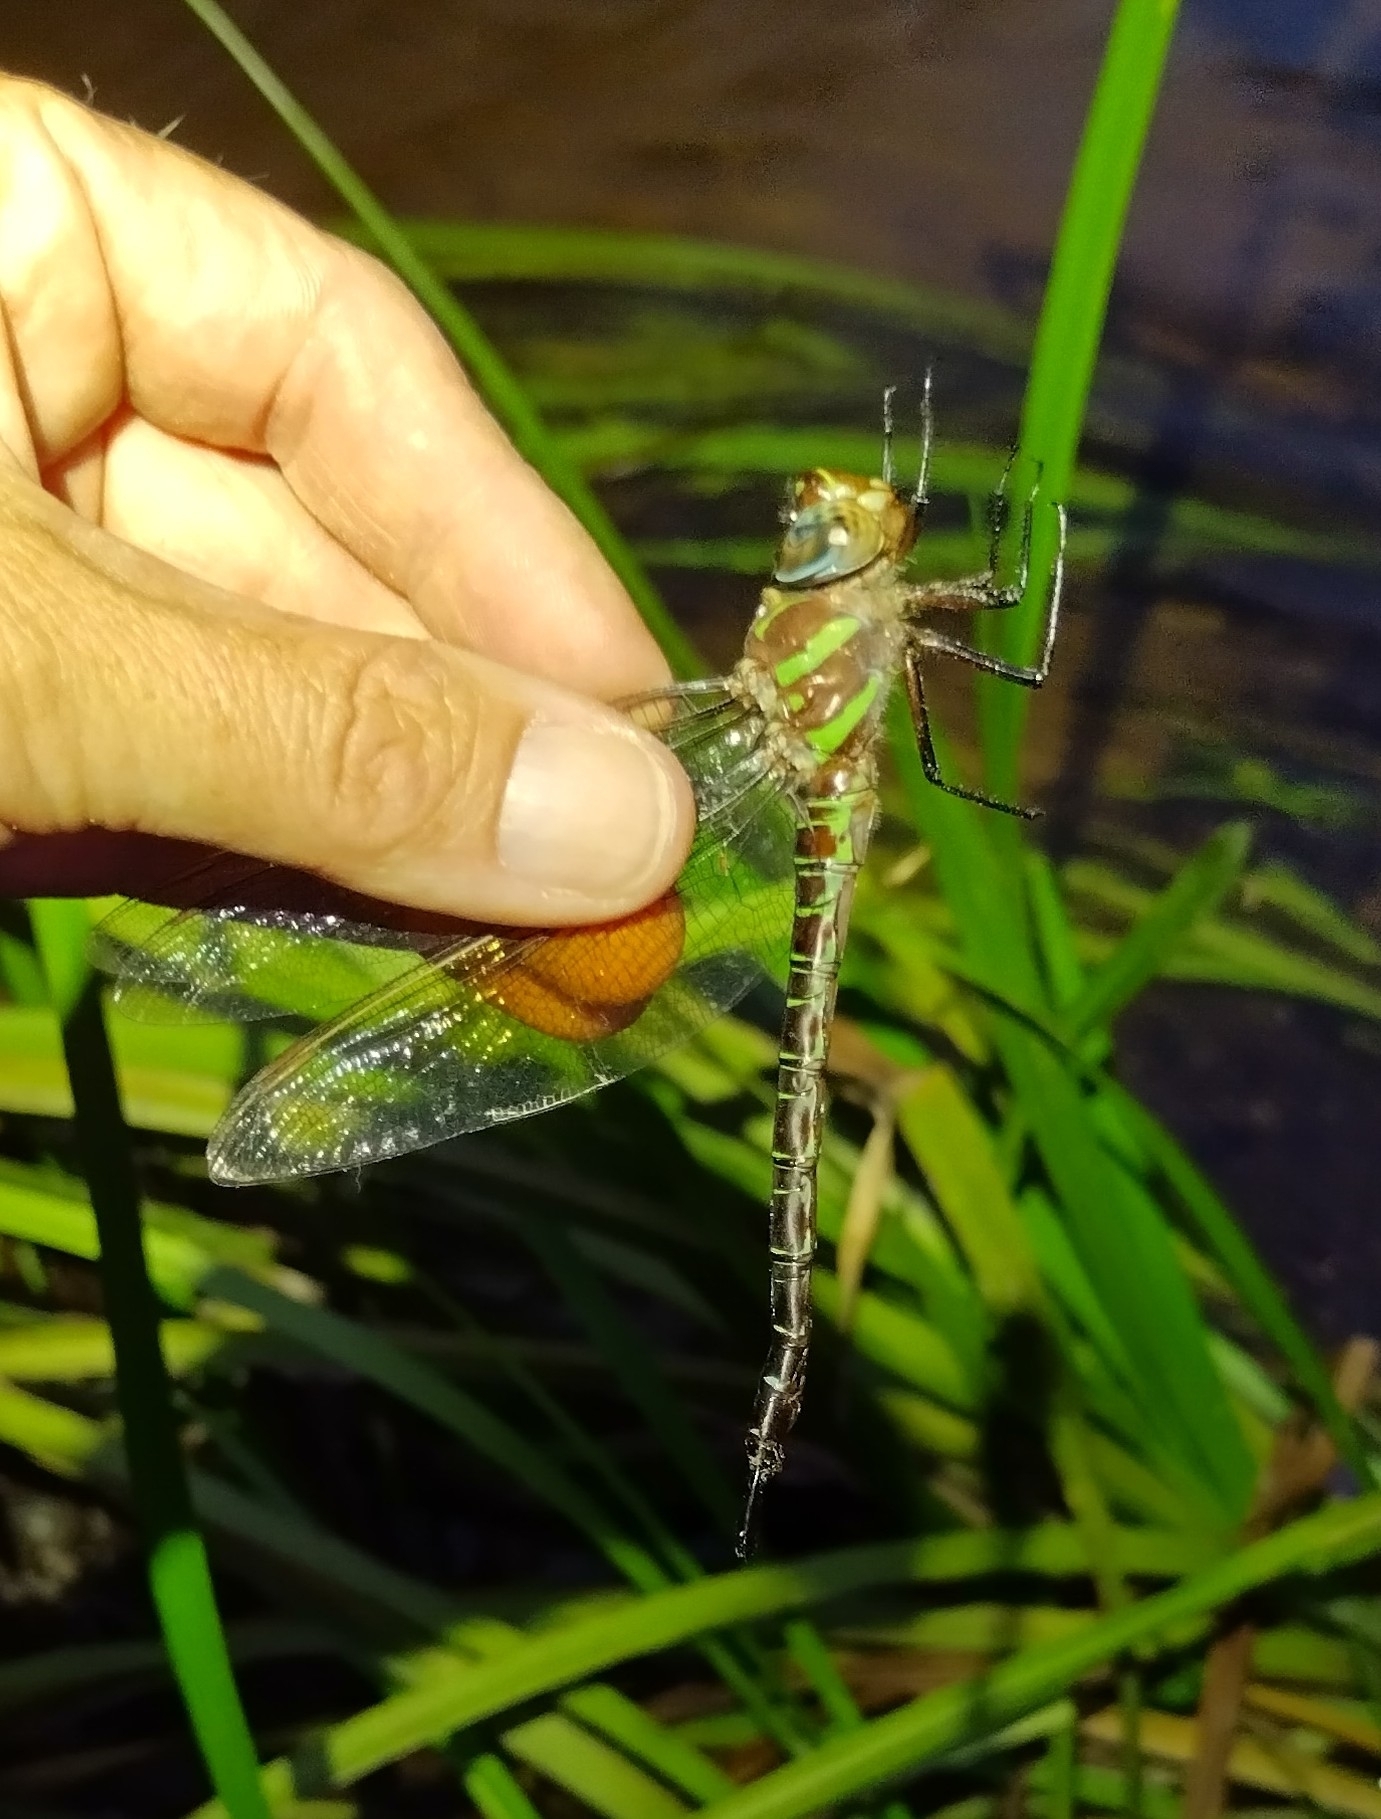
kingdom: Animalia
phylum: Arthropoda
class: Insecta
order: Odonata
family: Aeshnidae
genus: Epiaeschna
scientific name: Epiaeschna heros
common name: Swamp darner
